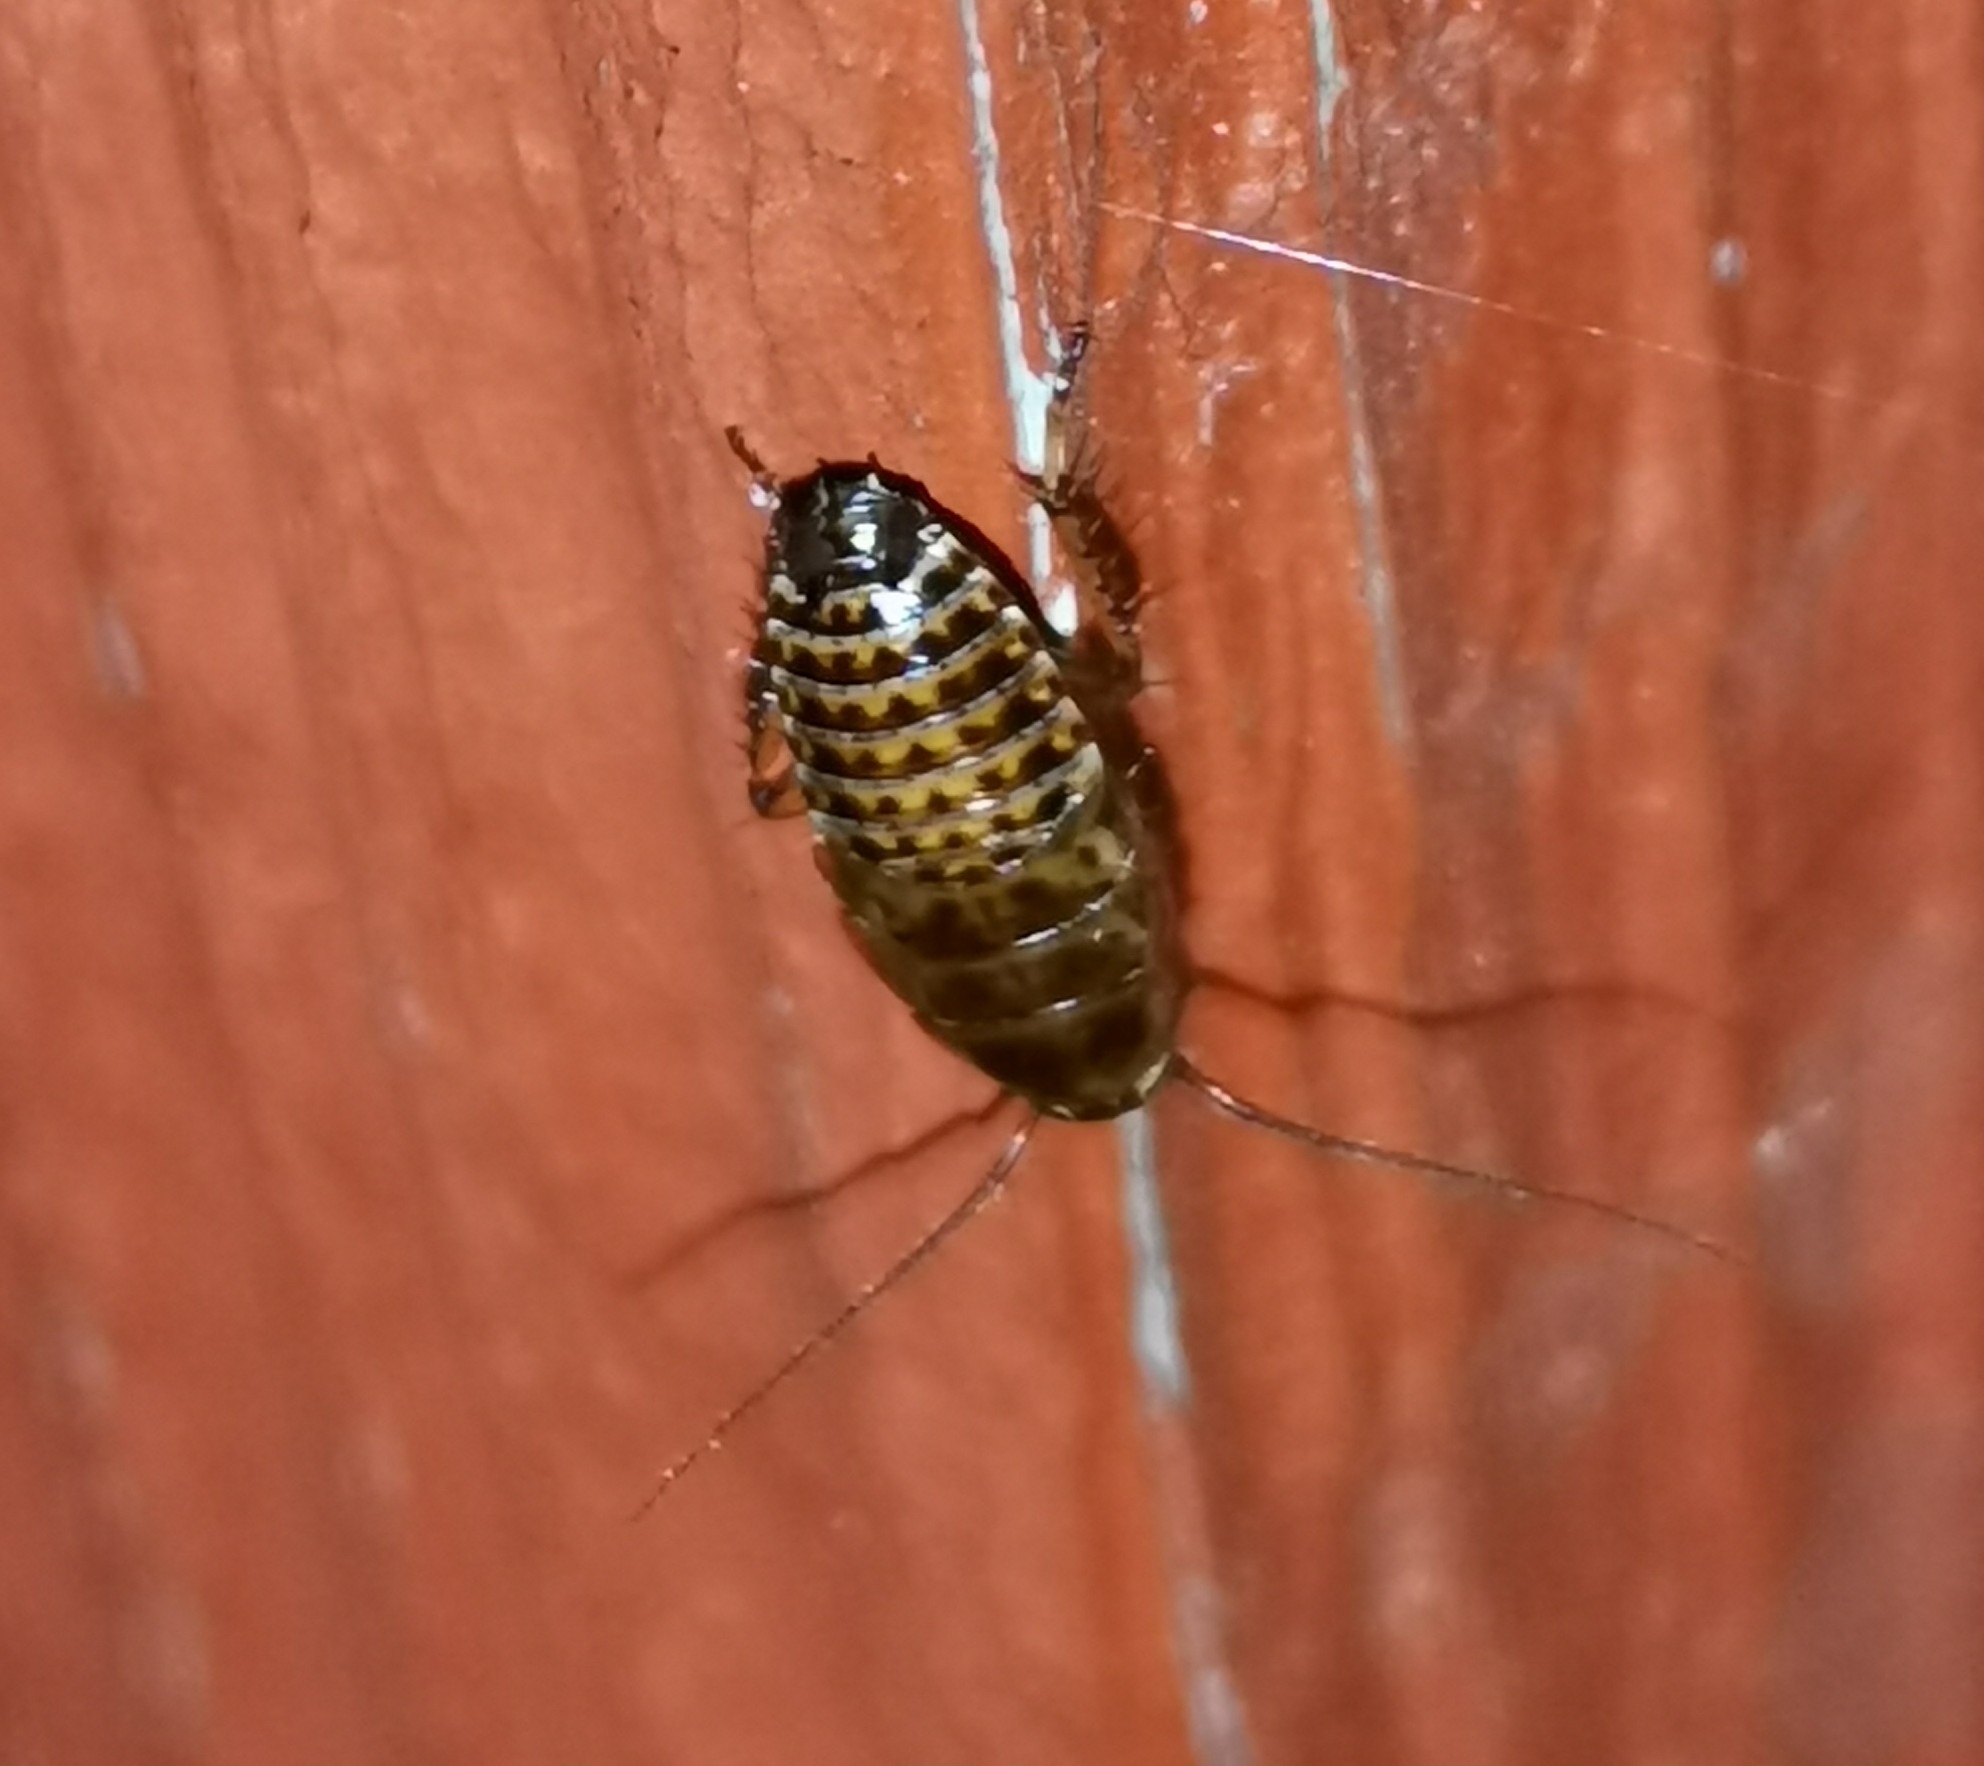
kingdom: Animalia
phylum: Arthropoda
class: Insecta
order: Blattodea
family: Ectobiidae
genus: Ectobius
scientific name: Ectobius lapponicus
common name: Dusky cockroach
